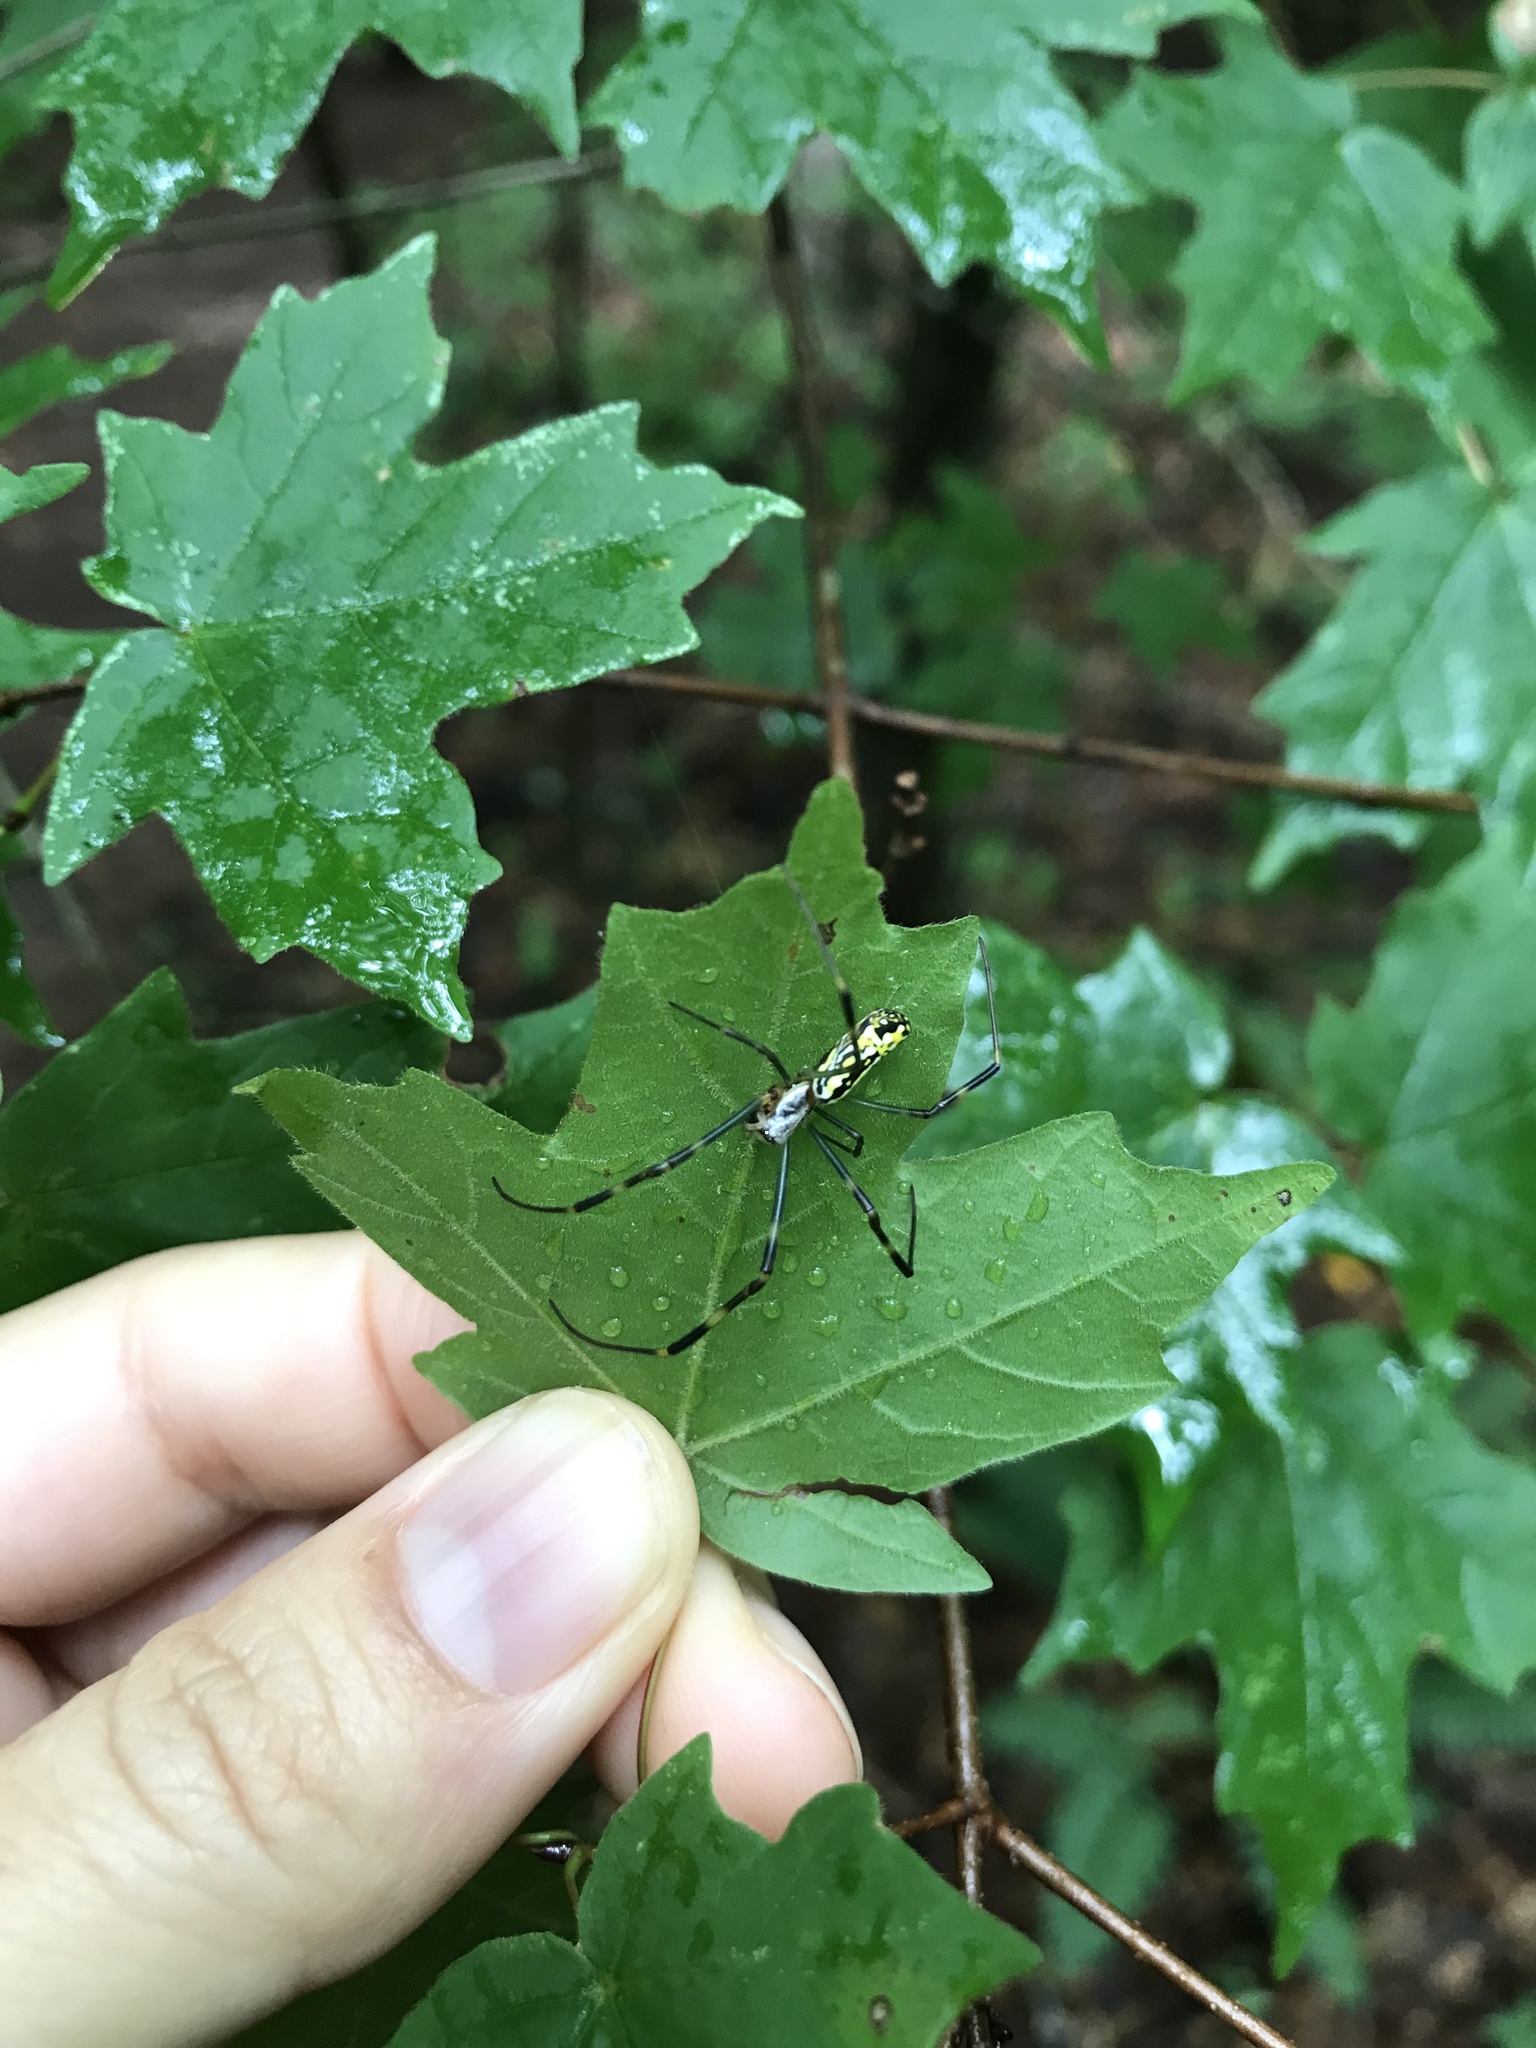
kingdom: Animalia
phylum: Arthropoda
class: Arachnida
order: Araneae
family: Araneidae
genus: Trichonephila
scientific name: Trichonephila clavata
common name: Jorō spider
